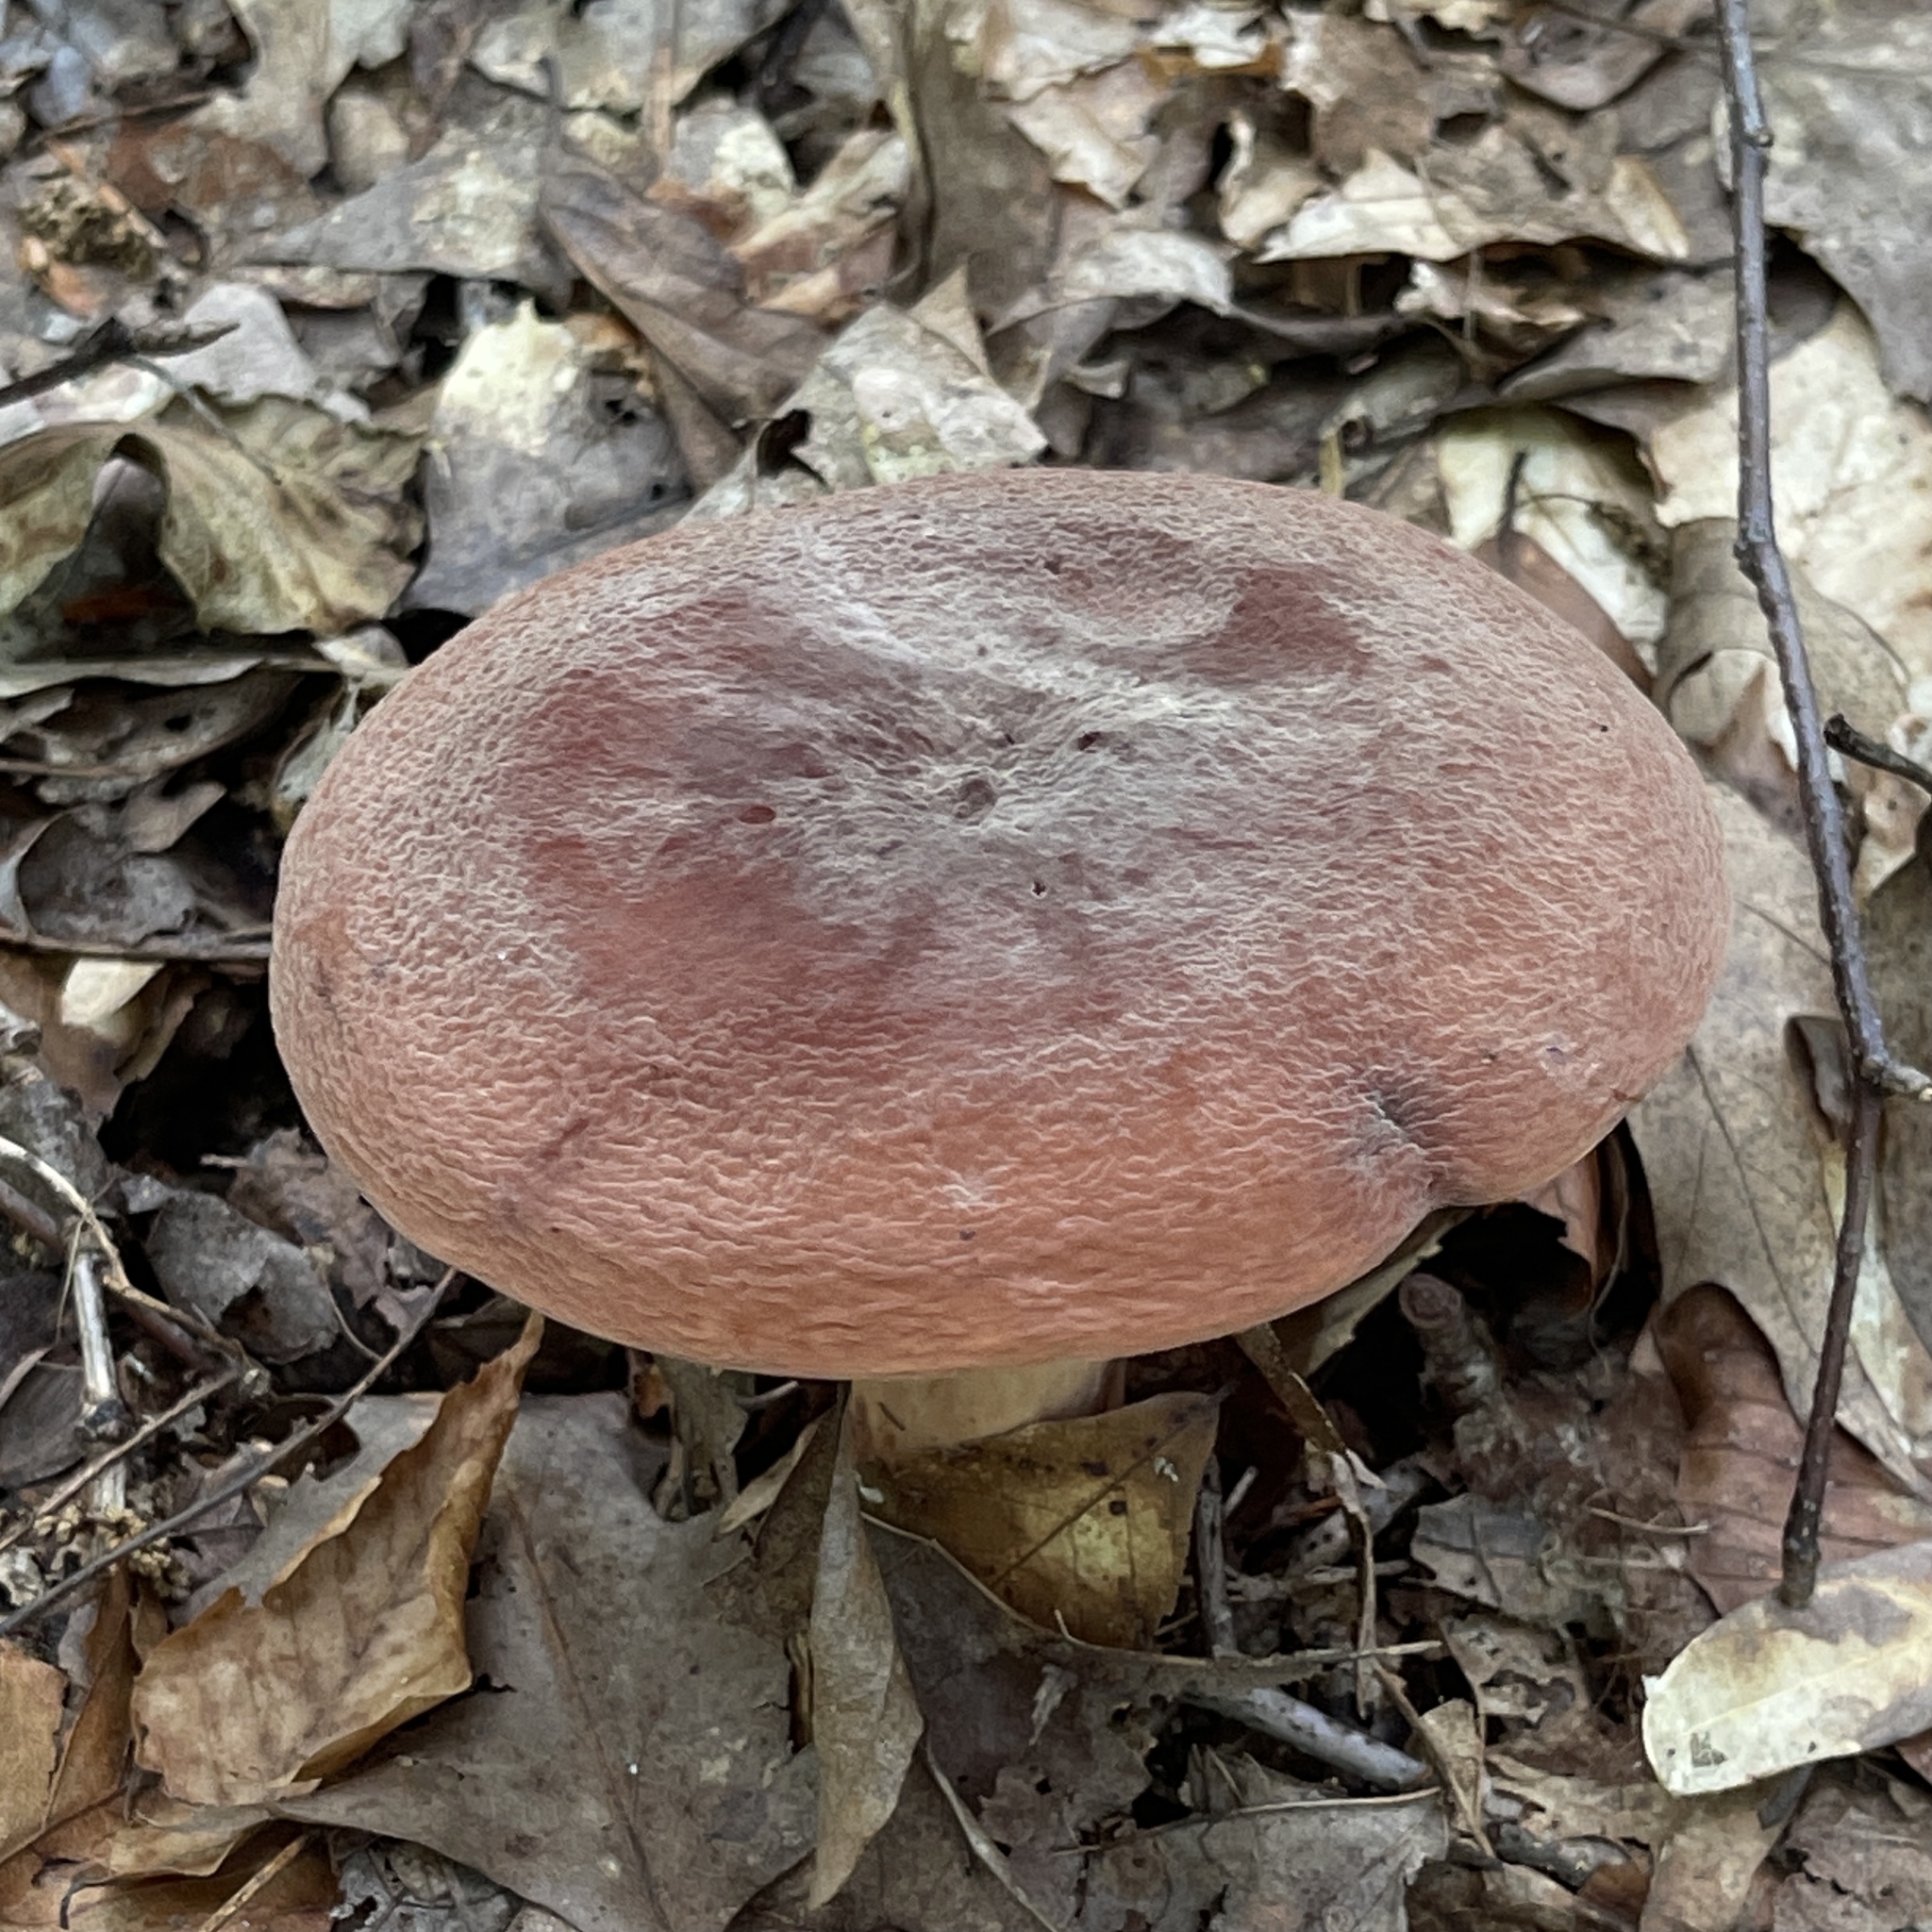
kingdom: Fungi
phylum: Basidiomycota
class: Agaricomycetes
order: Russulales
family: Russulaceae
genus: Lactarius
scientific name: Lactarius corrugis
